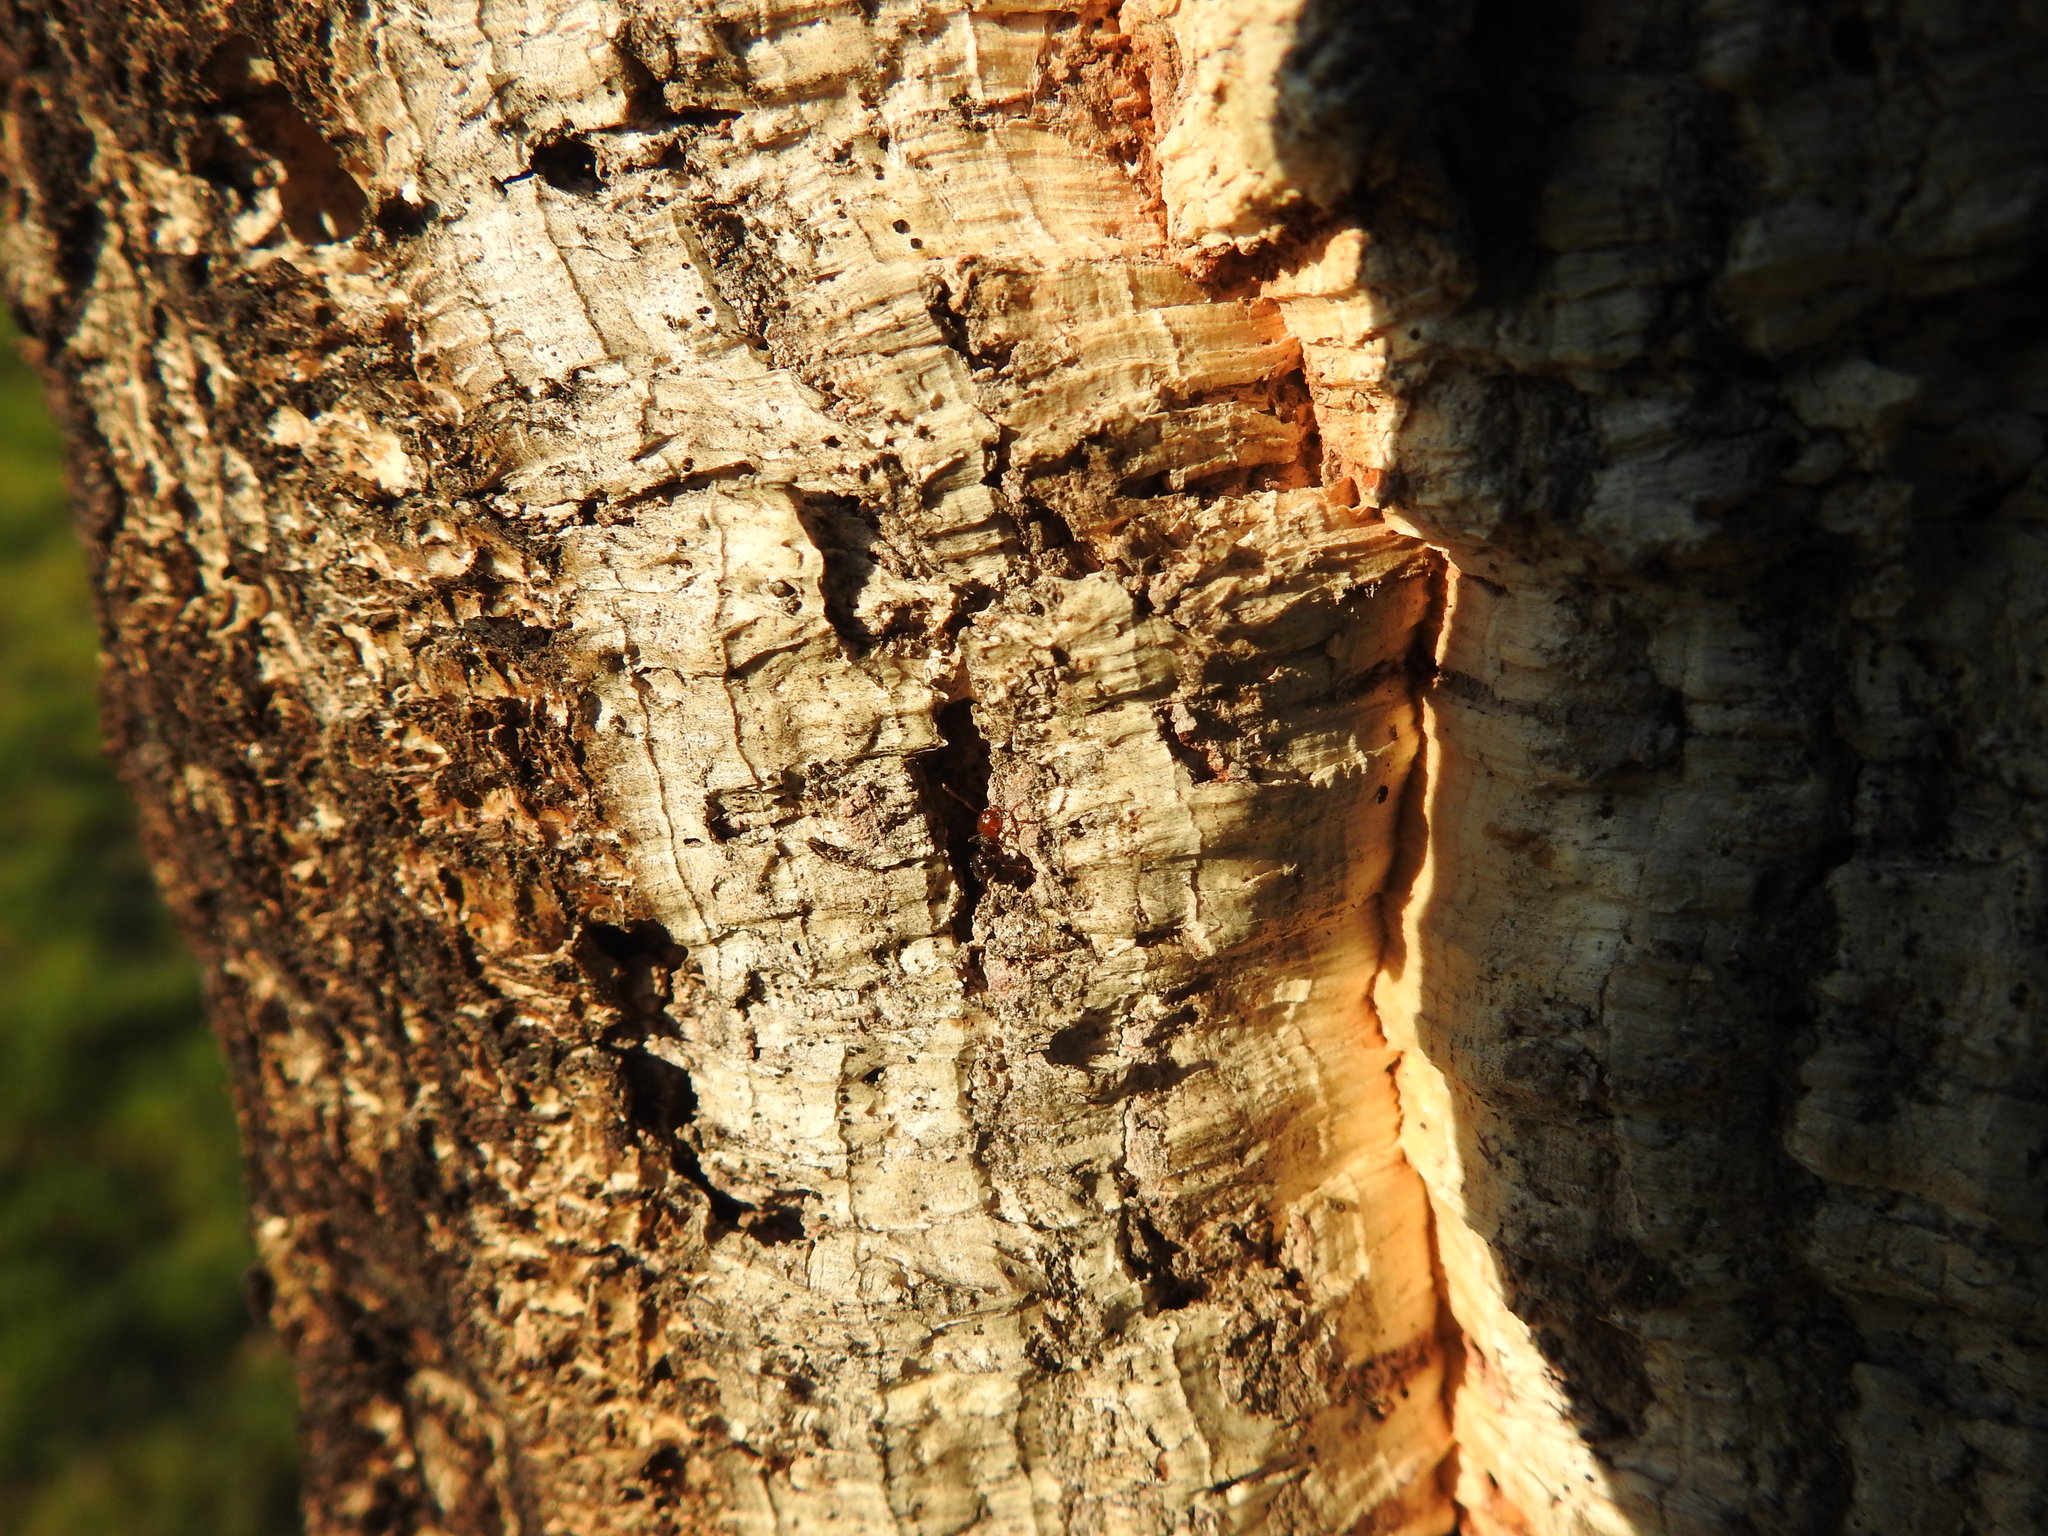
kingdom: Animalia
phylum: Arthropoda
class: Insecta
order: Hymenoptera
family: Formicidae
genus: Crematogaster
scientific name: Crematogaster scutellaris
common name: Fourmi du liège
